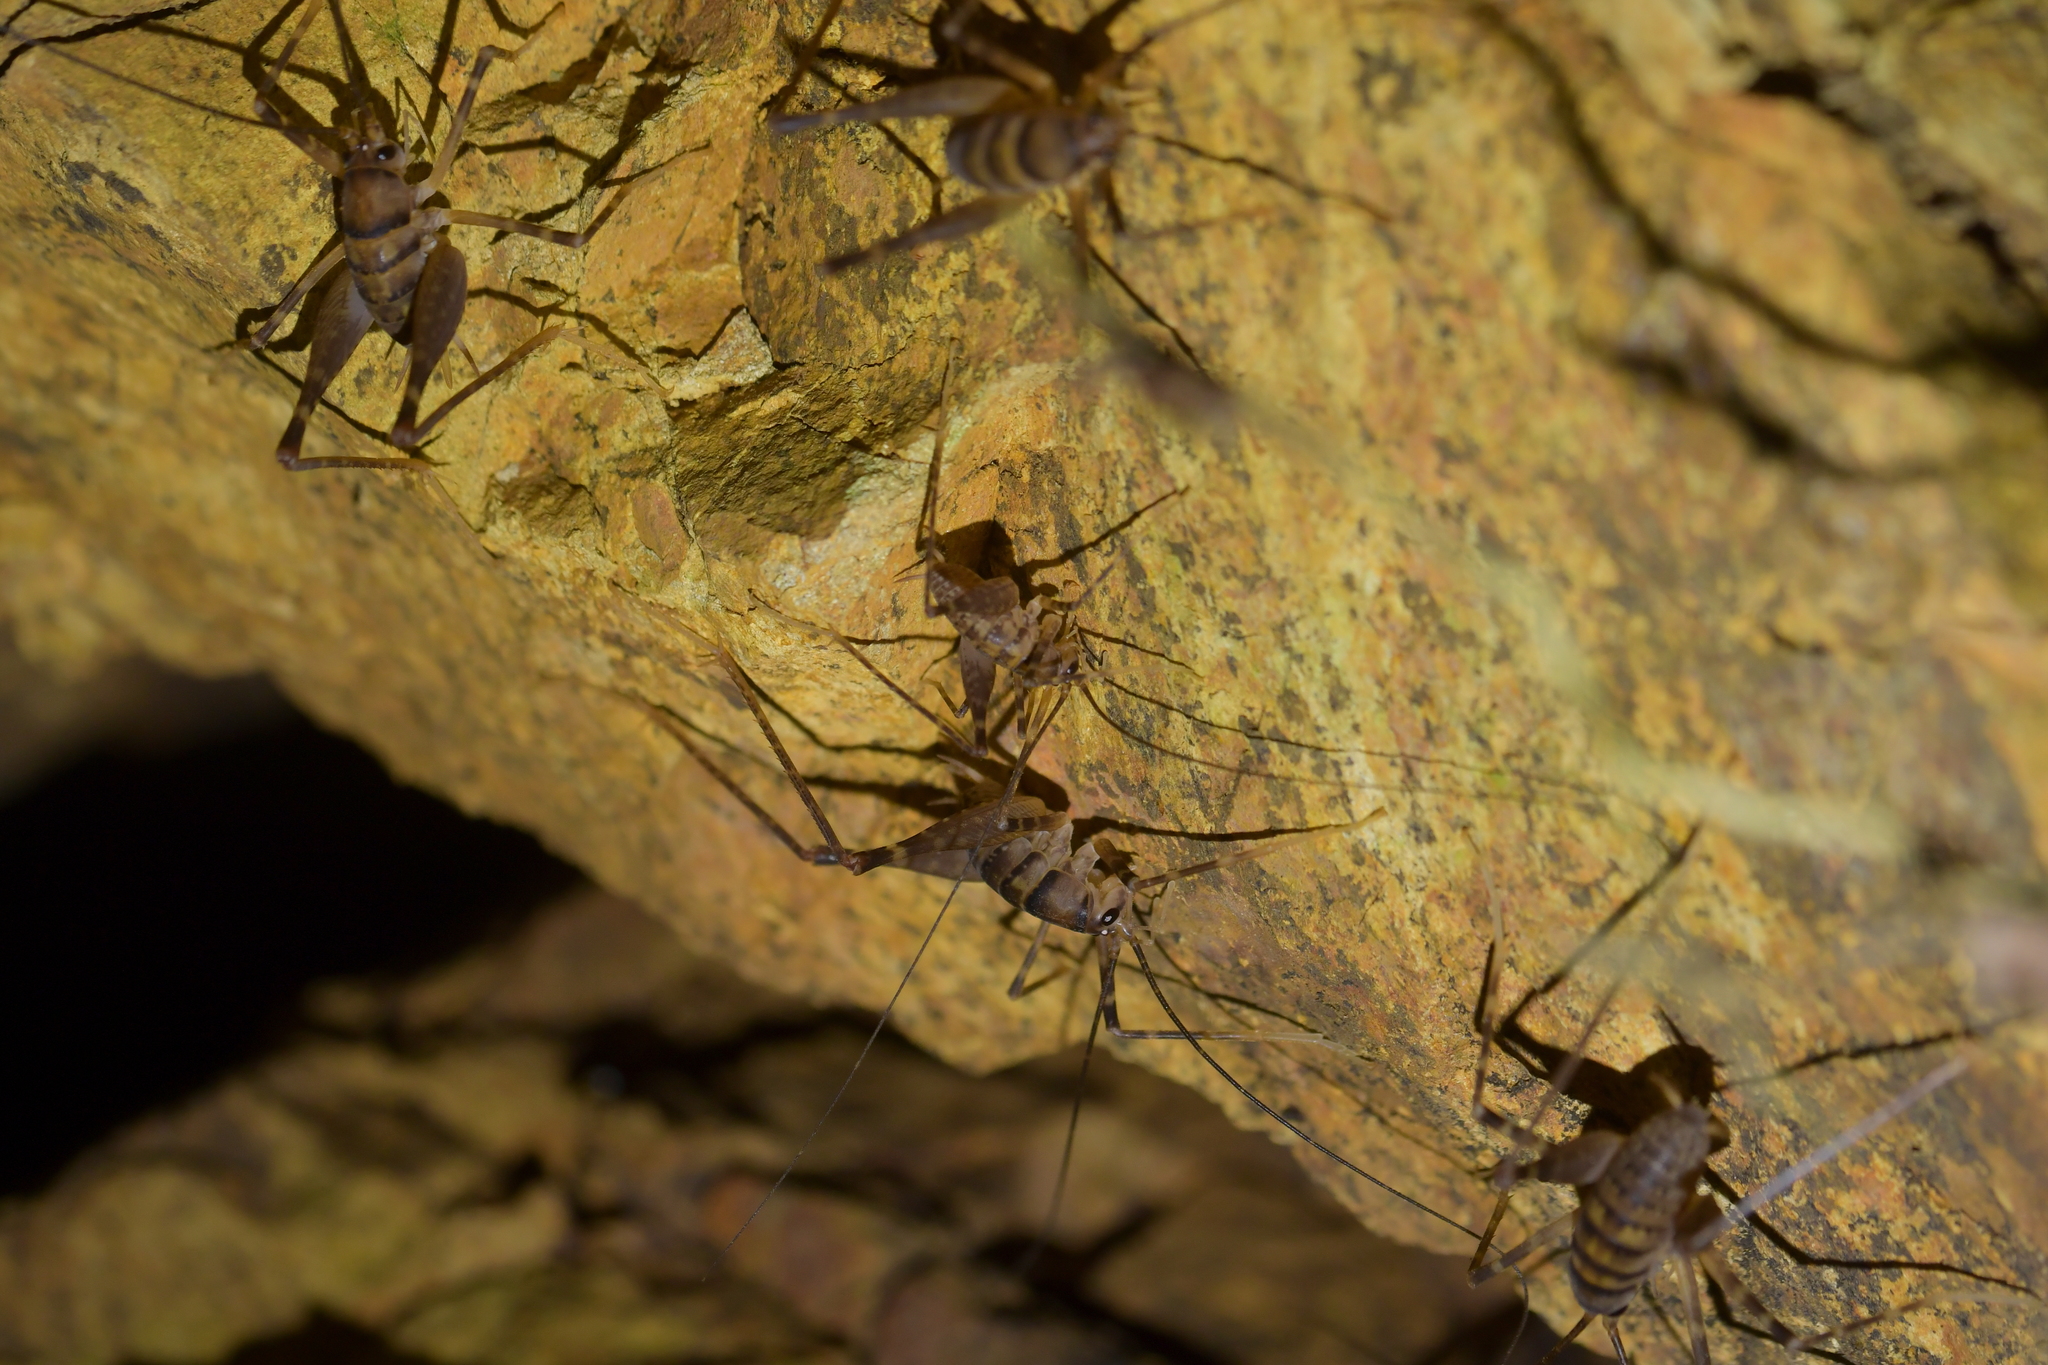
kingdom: Animalia
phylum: Arthropoda
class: Insecta
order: Orthoptera
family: Rhaphidophoridae
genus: Pachyrhamma
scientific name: Pachyrhamma edwardsii
